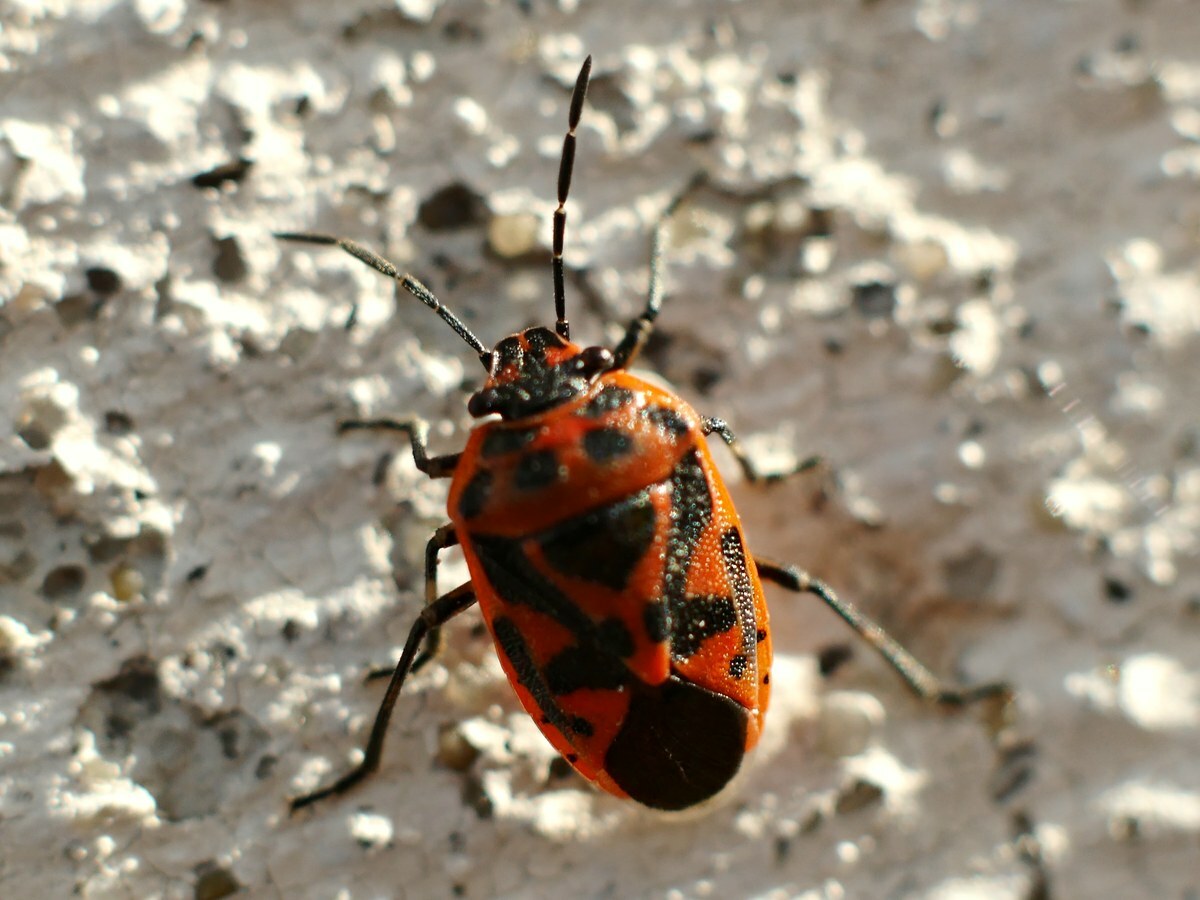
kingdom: Animalia
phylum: Arthropoda
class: Insecta
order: Hemiptera
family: Pentatomidae
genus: Eurydema
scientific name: Eurydema ornata
